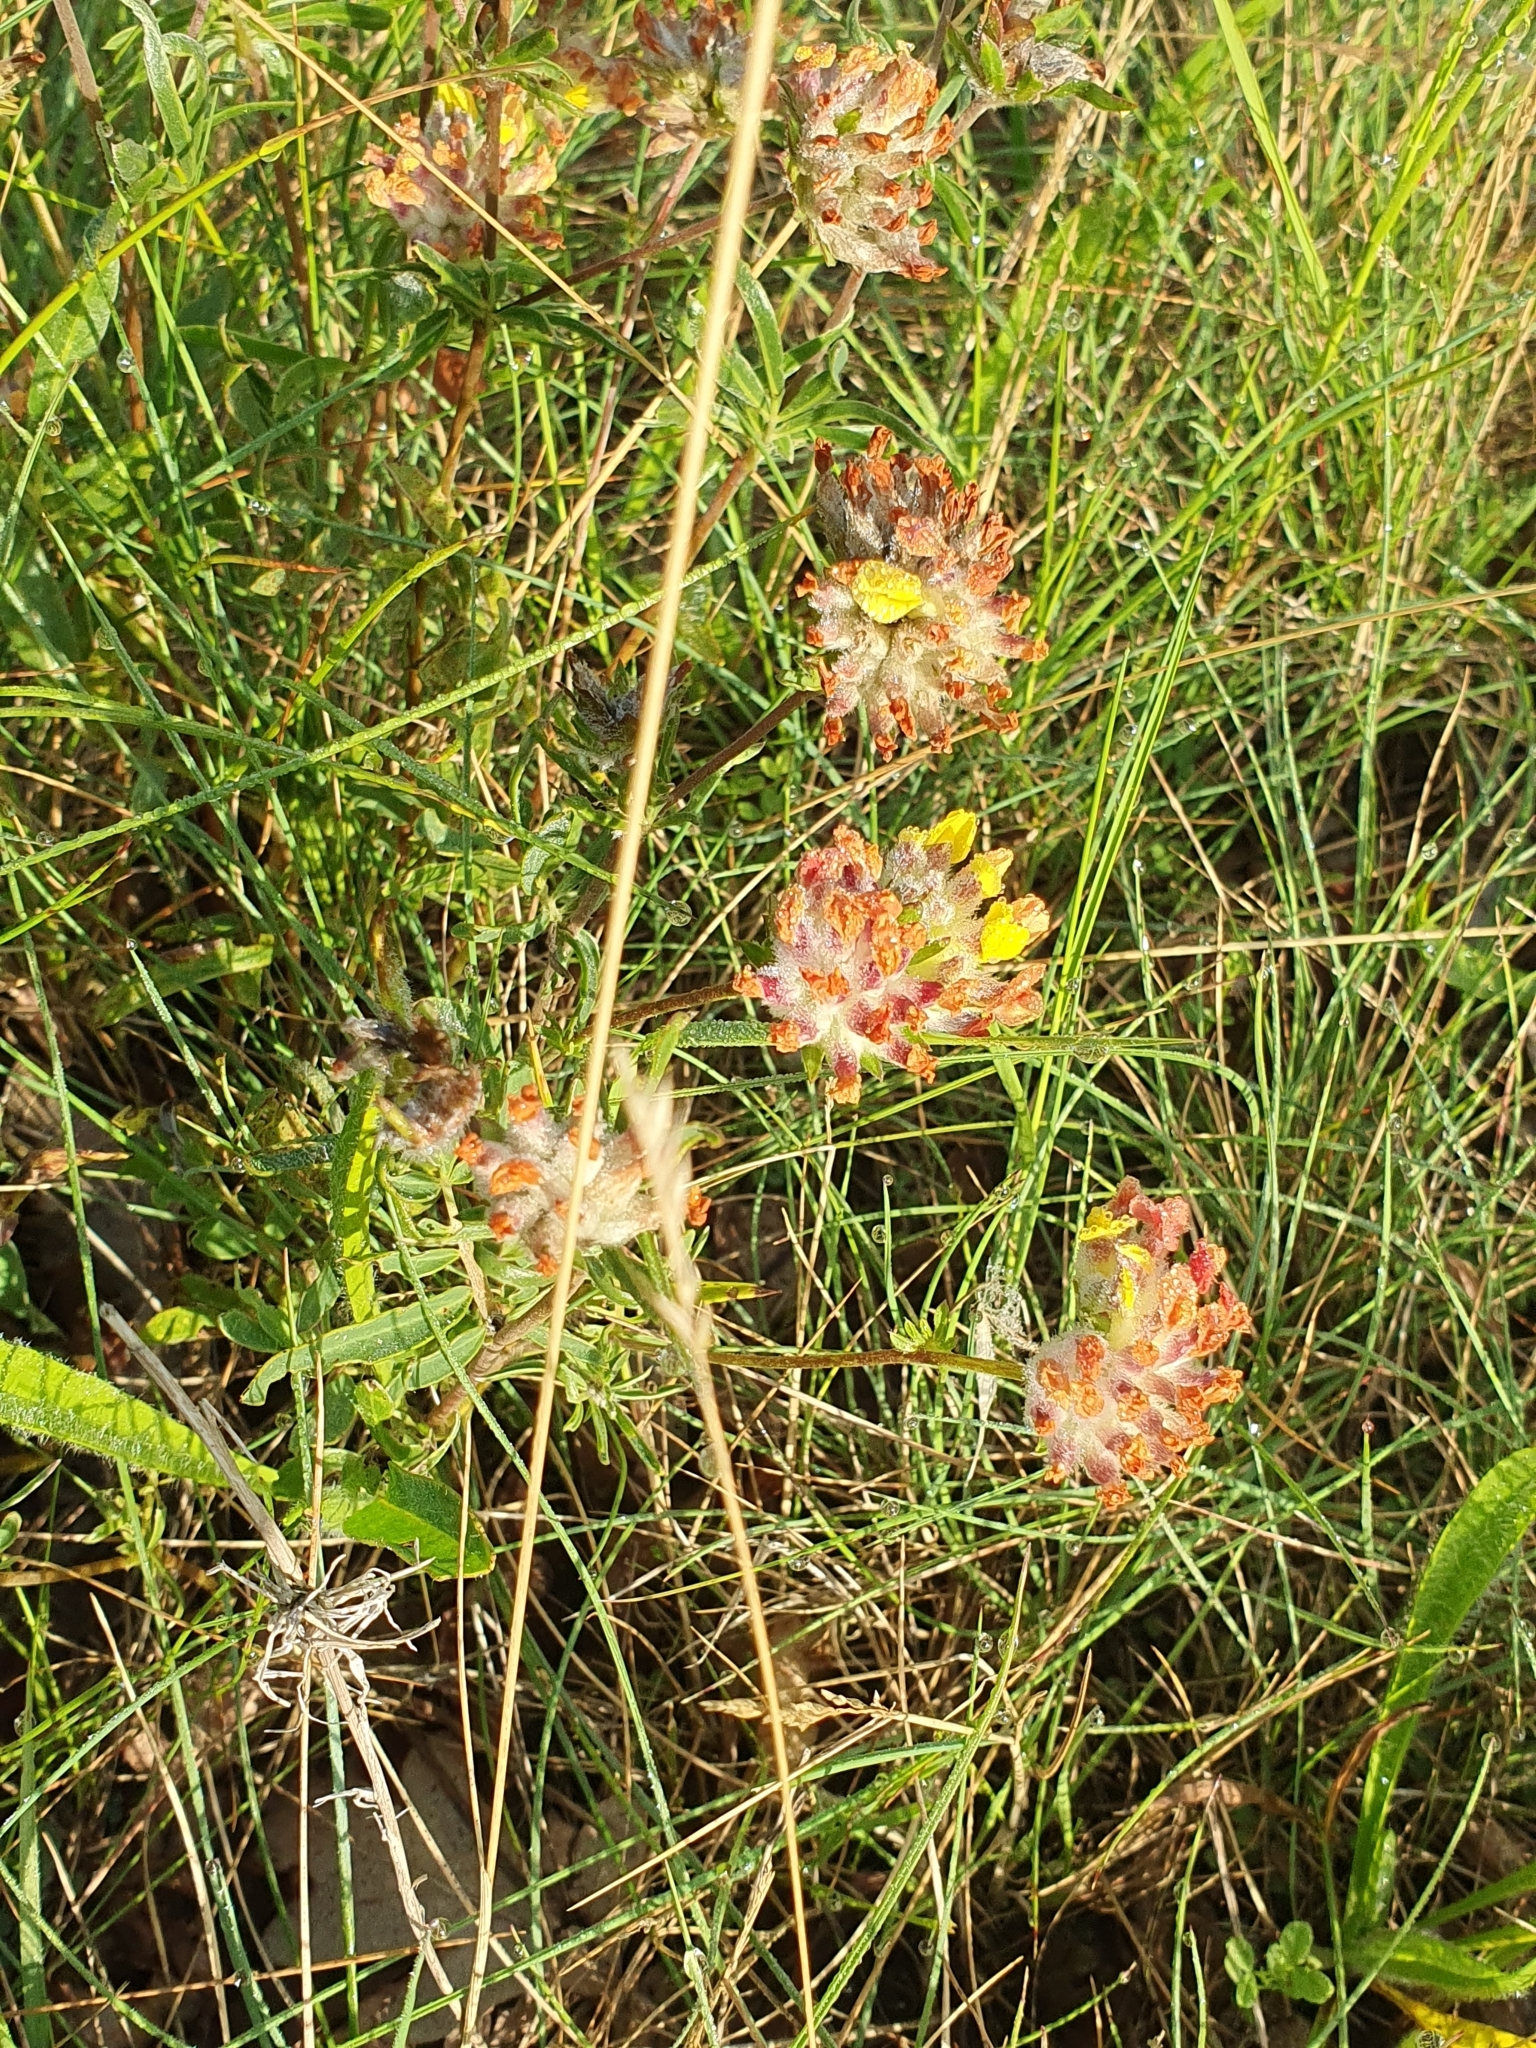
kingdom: Plantae
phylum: Tracheophyta
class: Magnoliopsida
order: Fabales
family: Fabaceae
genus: Anthyllis
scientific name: Anthyllis vulneraria
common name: Kidney vetch
